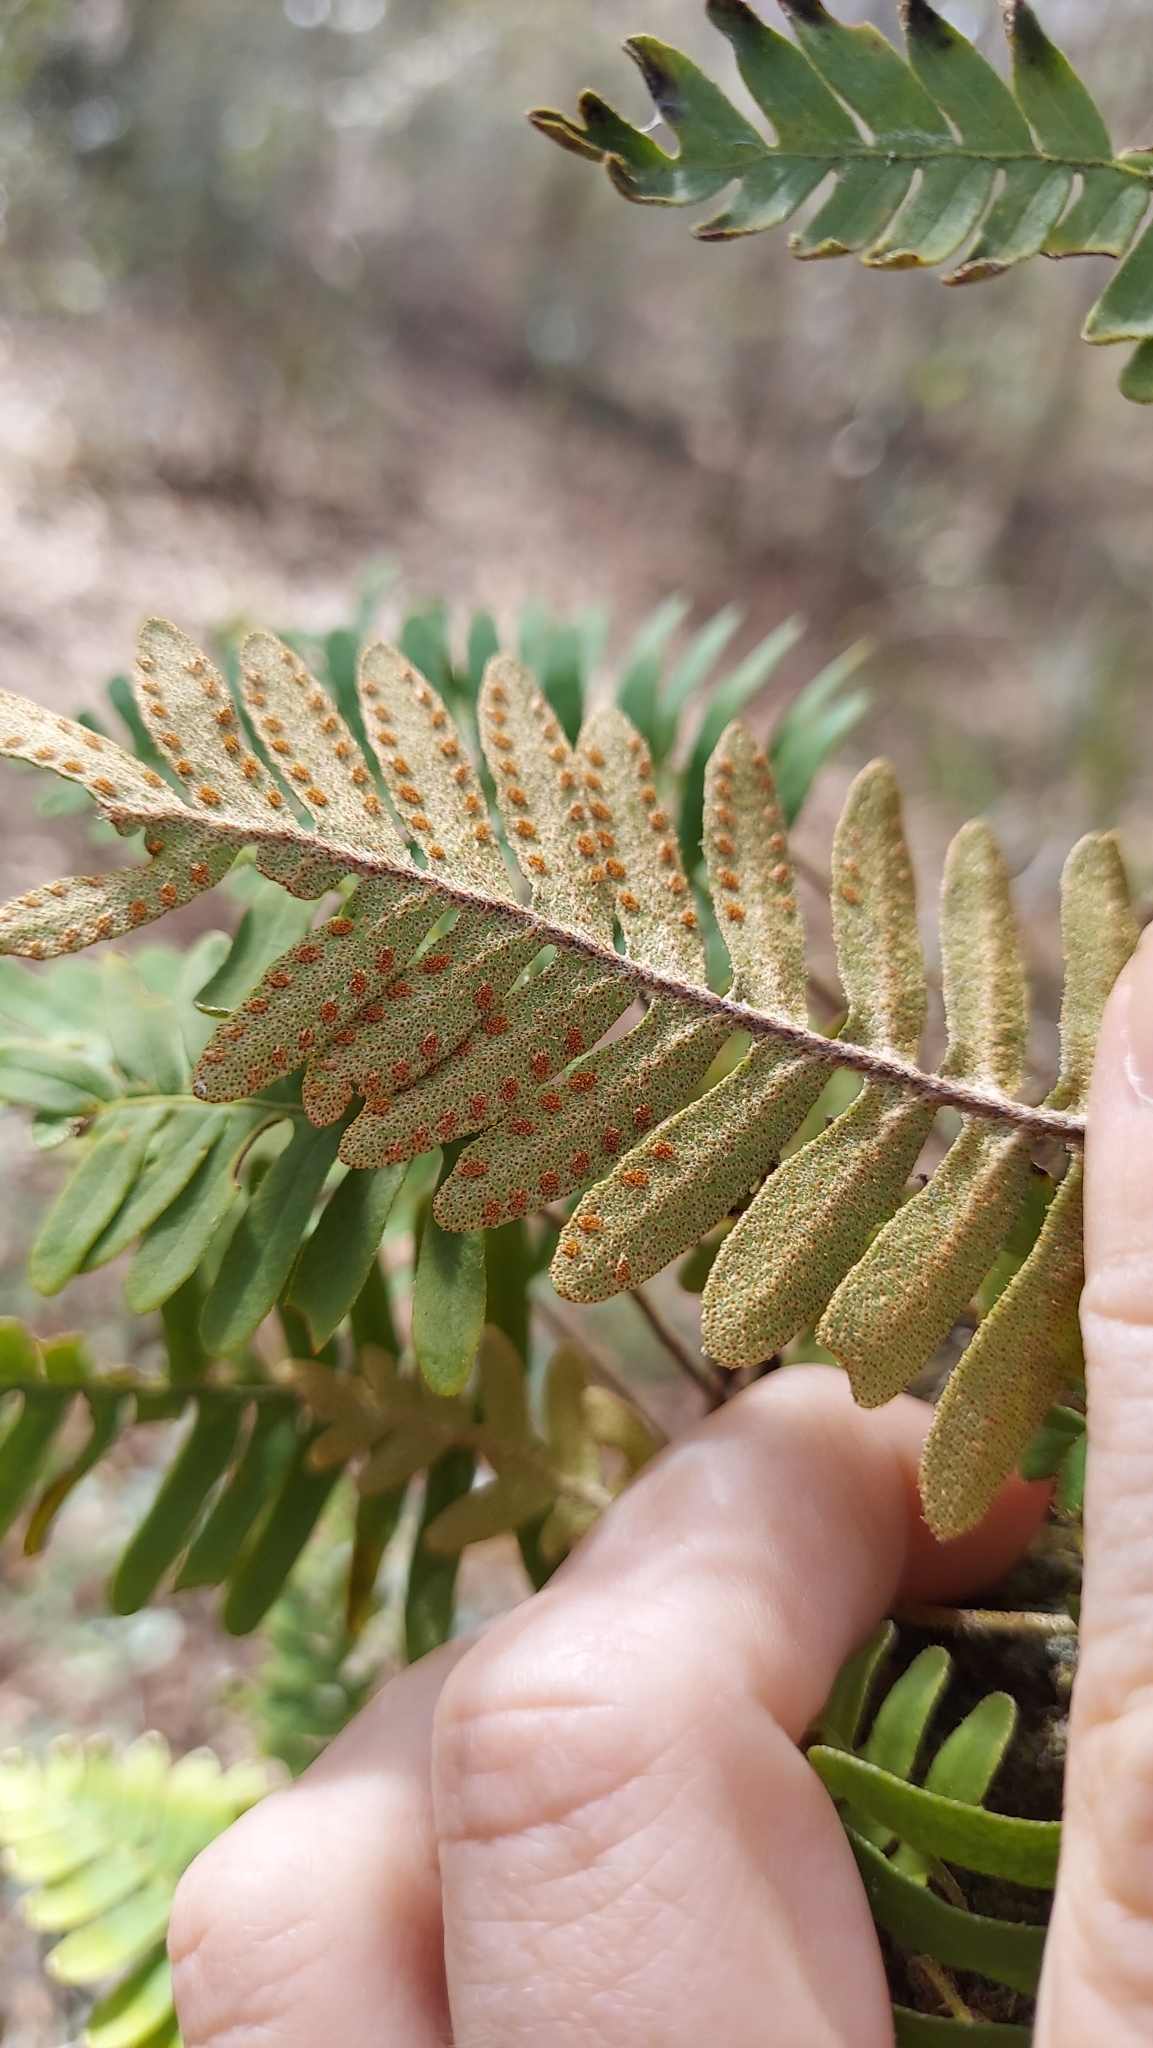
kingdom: Plantae
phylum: Tracheophyta
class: Polypodiopsida
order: Polypodiales
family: Polypodiaceae
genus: Pleopeltis
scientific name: Pleopeltis michauxiana
